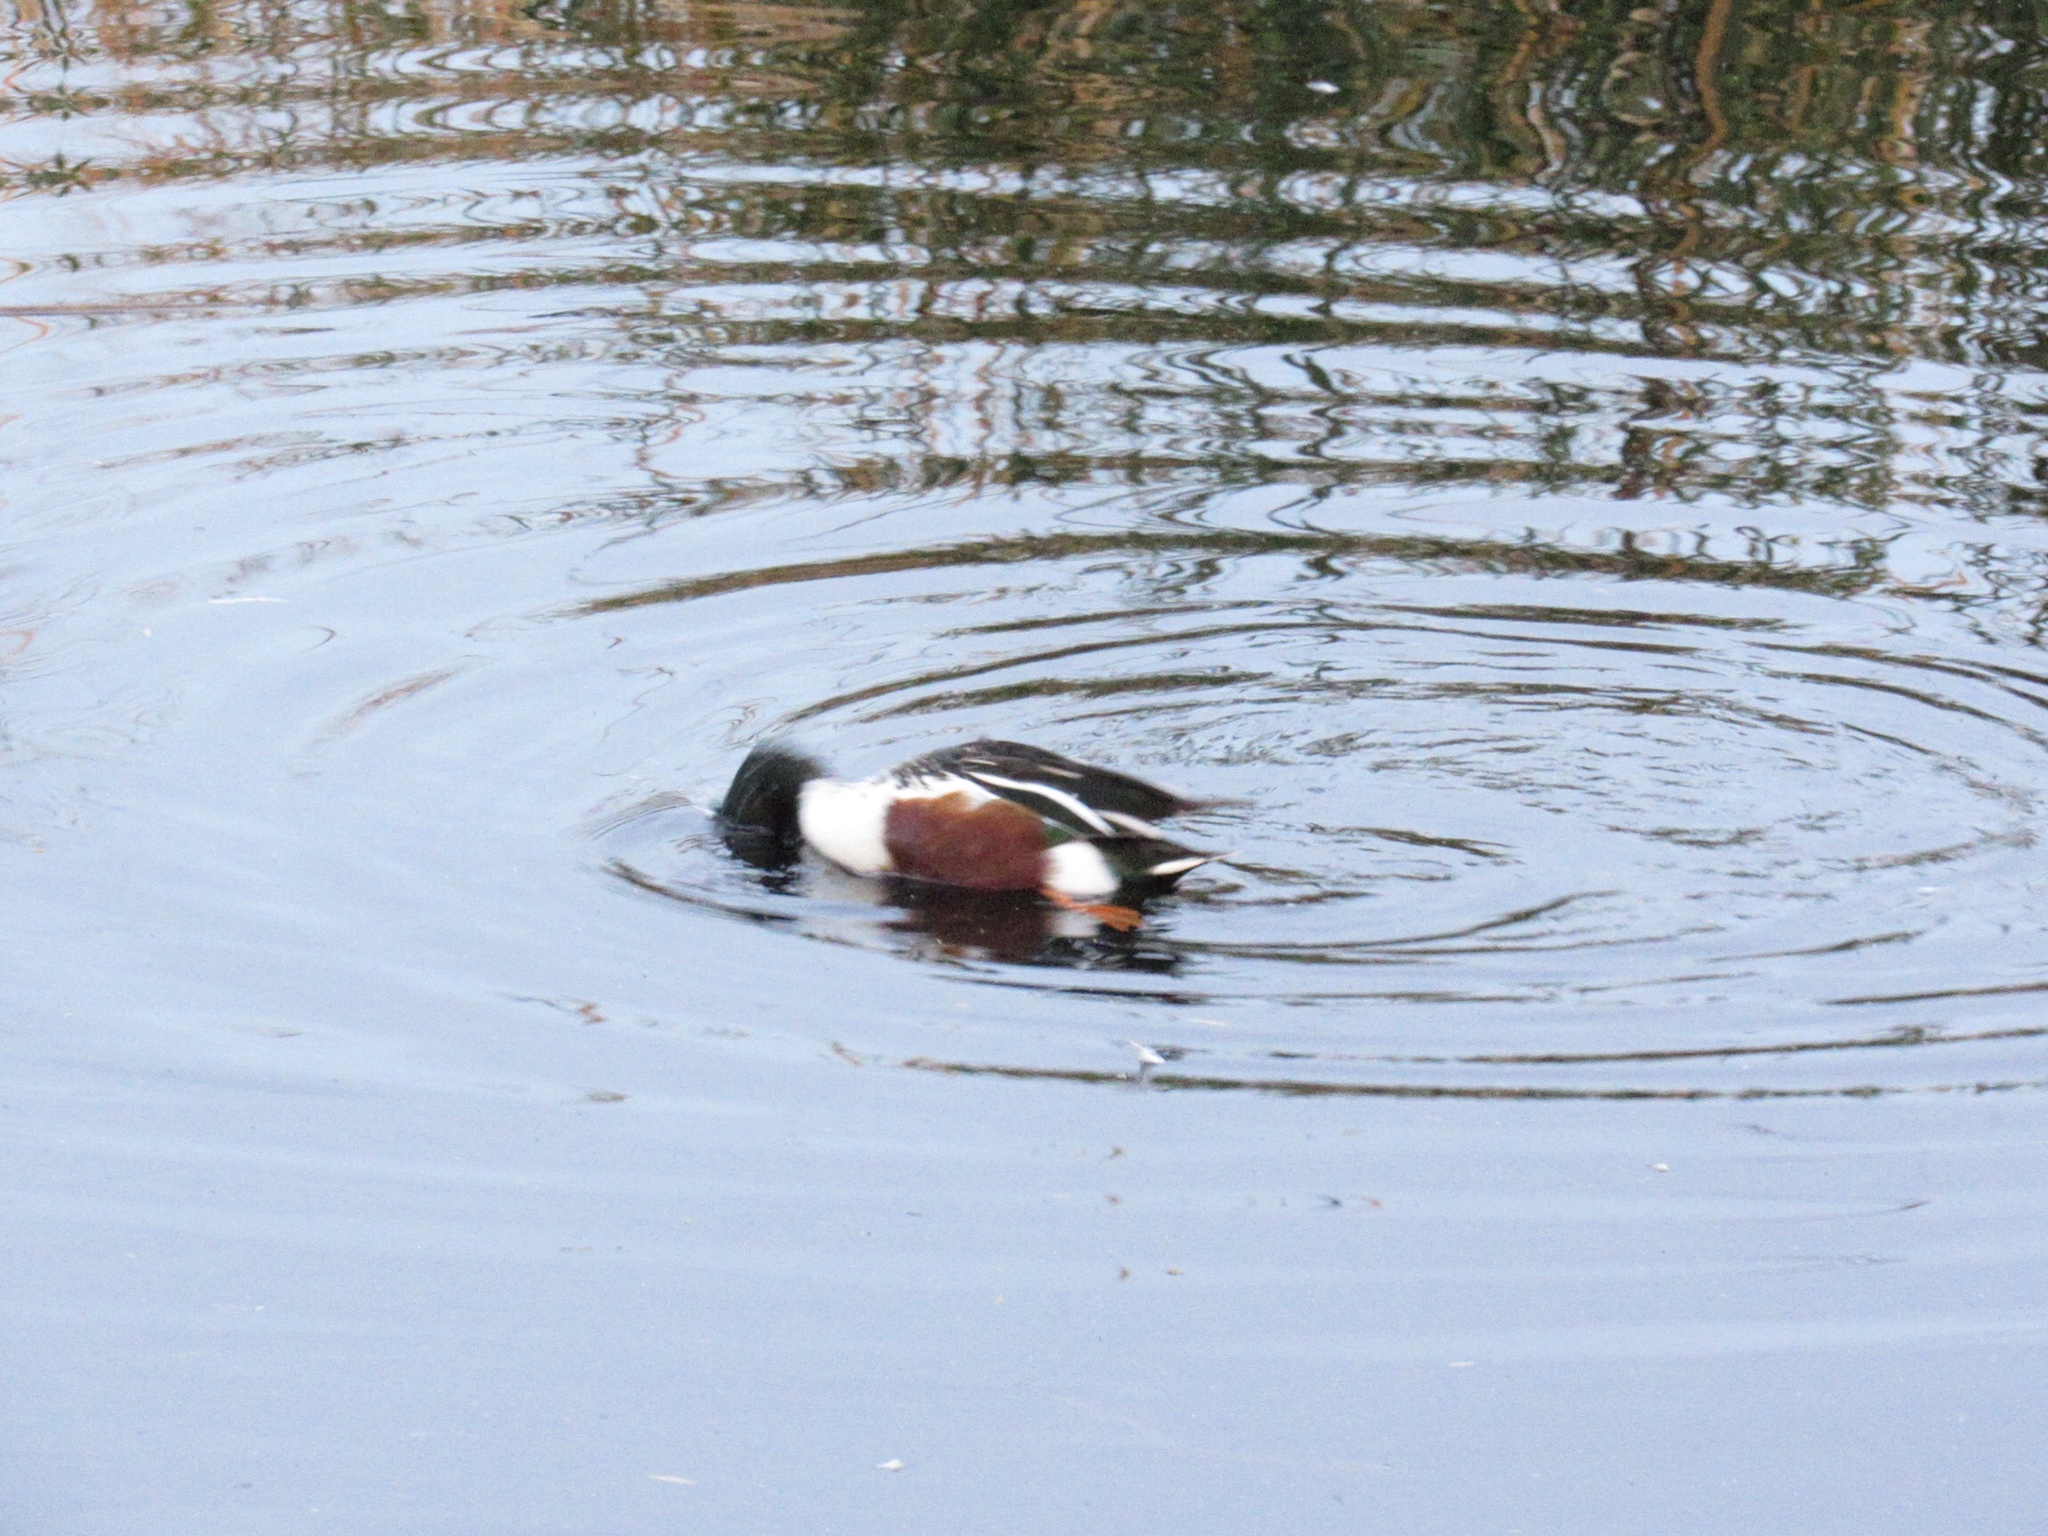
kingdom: Animalia
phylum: Chordata
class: Aves
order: Anseriformes
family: Anatidae
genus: Spatula
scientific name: Spatula clypeata
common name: Northern shoveler
